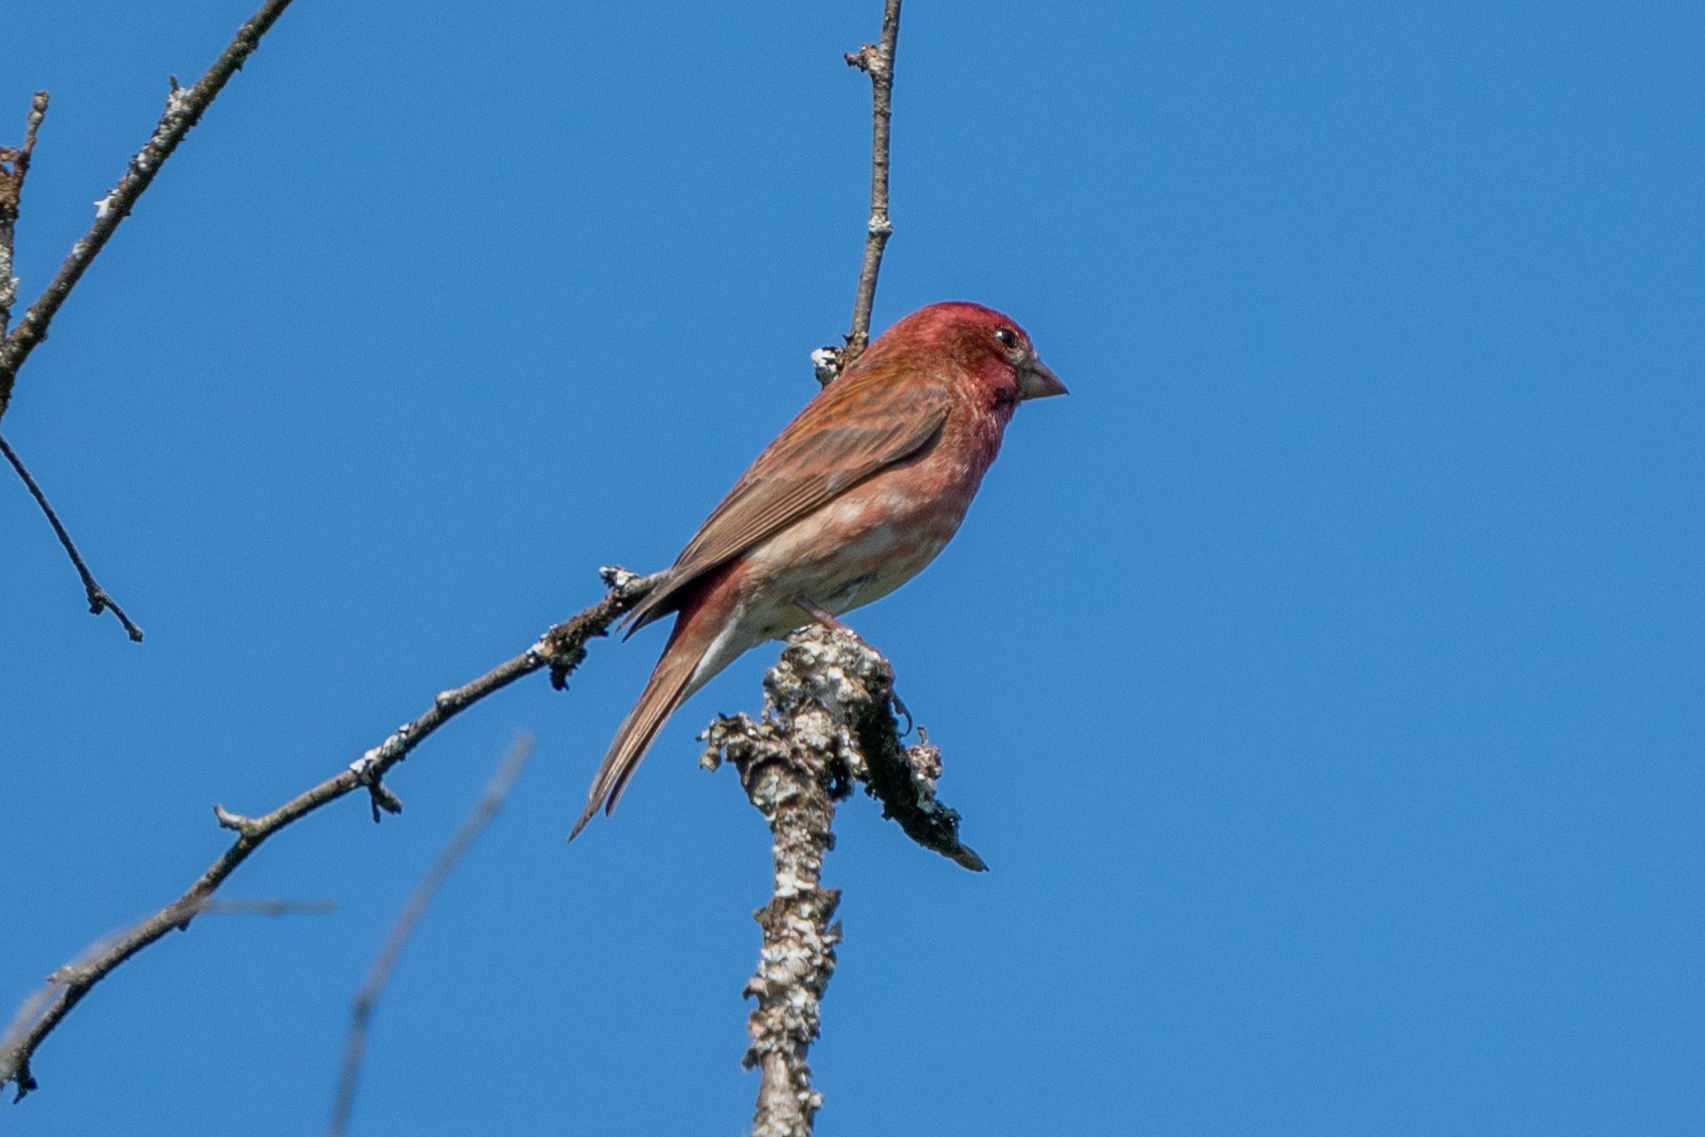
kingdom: Animalia
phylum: Chordata
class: Aves
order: Passeriformes
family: Fringillidae
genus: Haemorhous
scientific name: Haemorhous purpureus
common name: Purple finch
